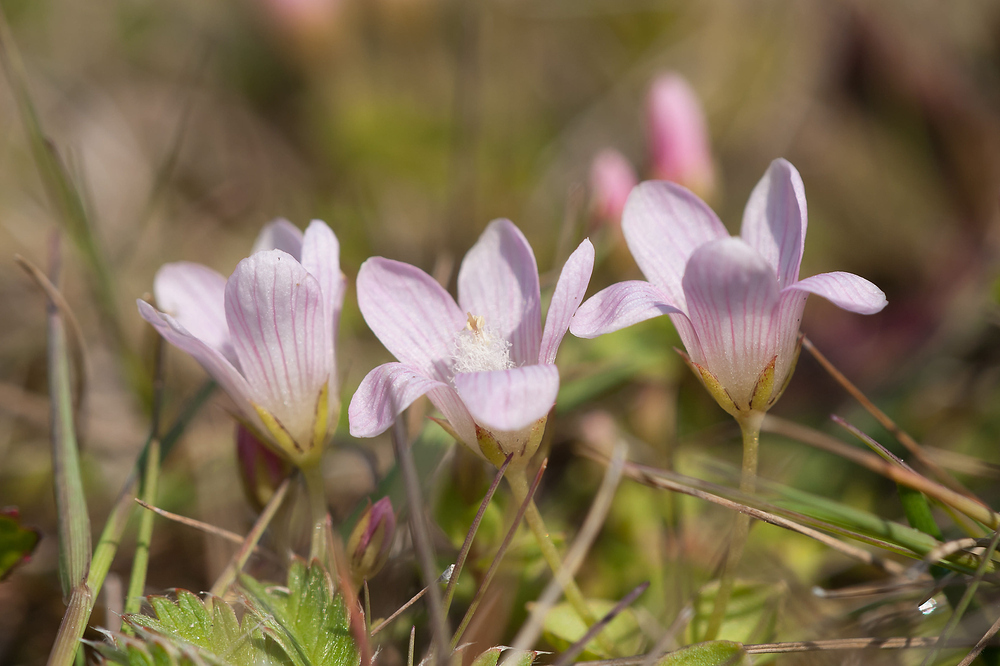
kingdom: Plantae
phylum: Tracheophyta
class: Magnoliopsida
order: Ericales
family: Primulaceae
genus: Lysimachia
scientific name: Lysimachia tenella
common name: European bog pimpernel
